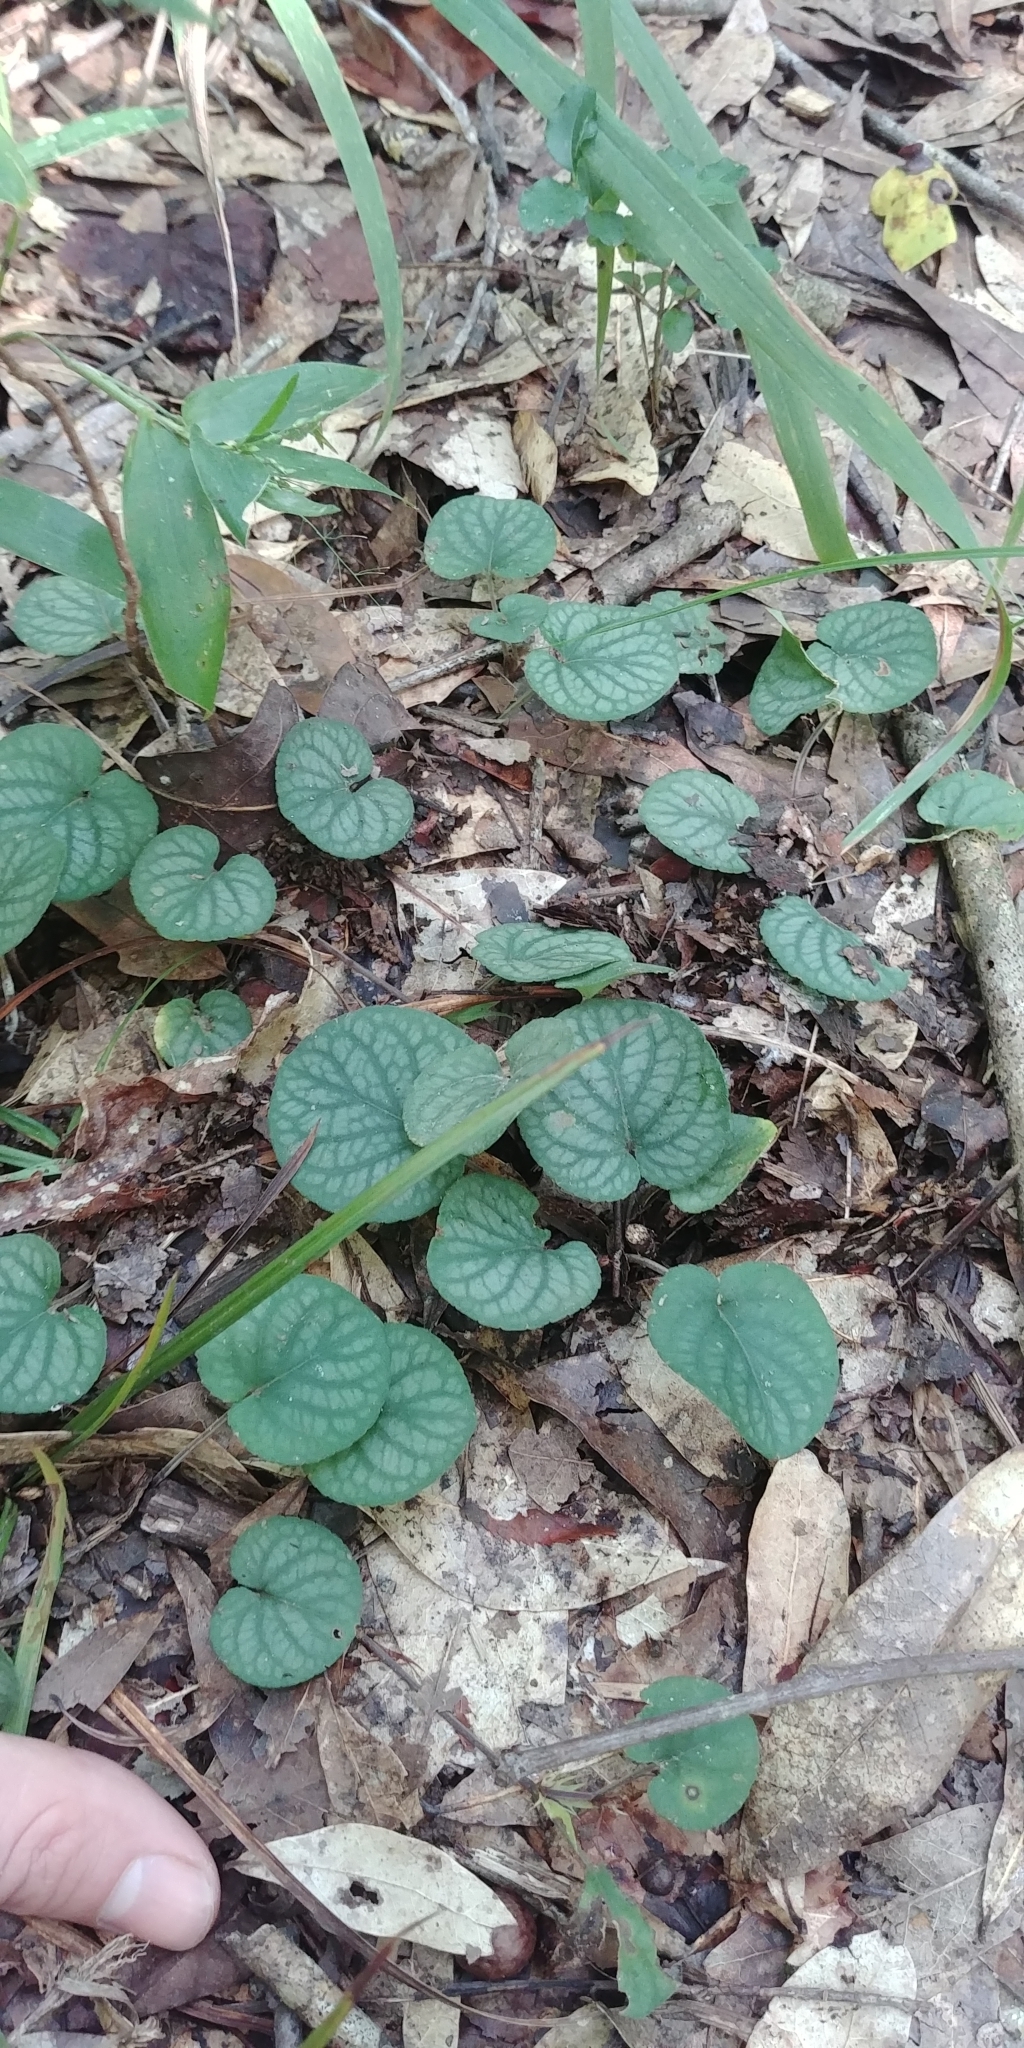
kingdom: Plantae
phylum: Tracheophyta
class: Magnoliopsida
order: Malpighiales
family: Violaceae
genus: Viola
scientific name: Viola walteri
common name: Prostrate southern violet
